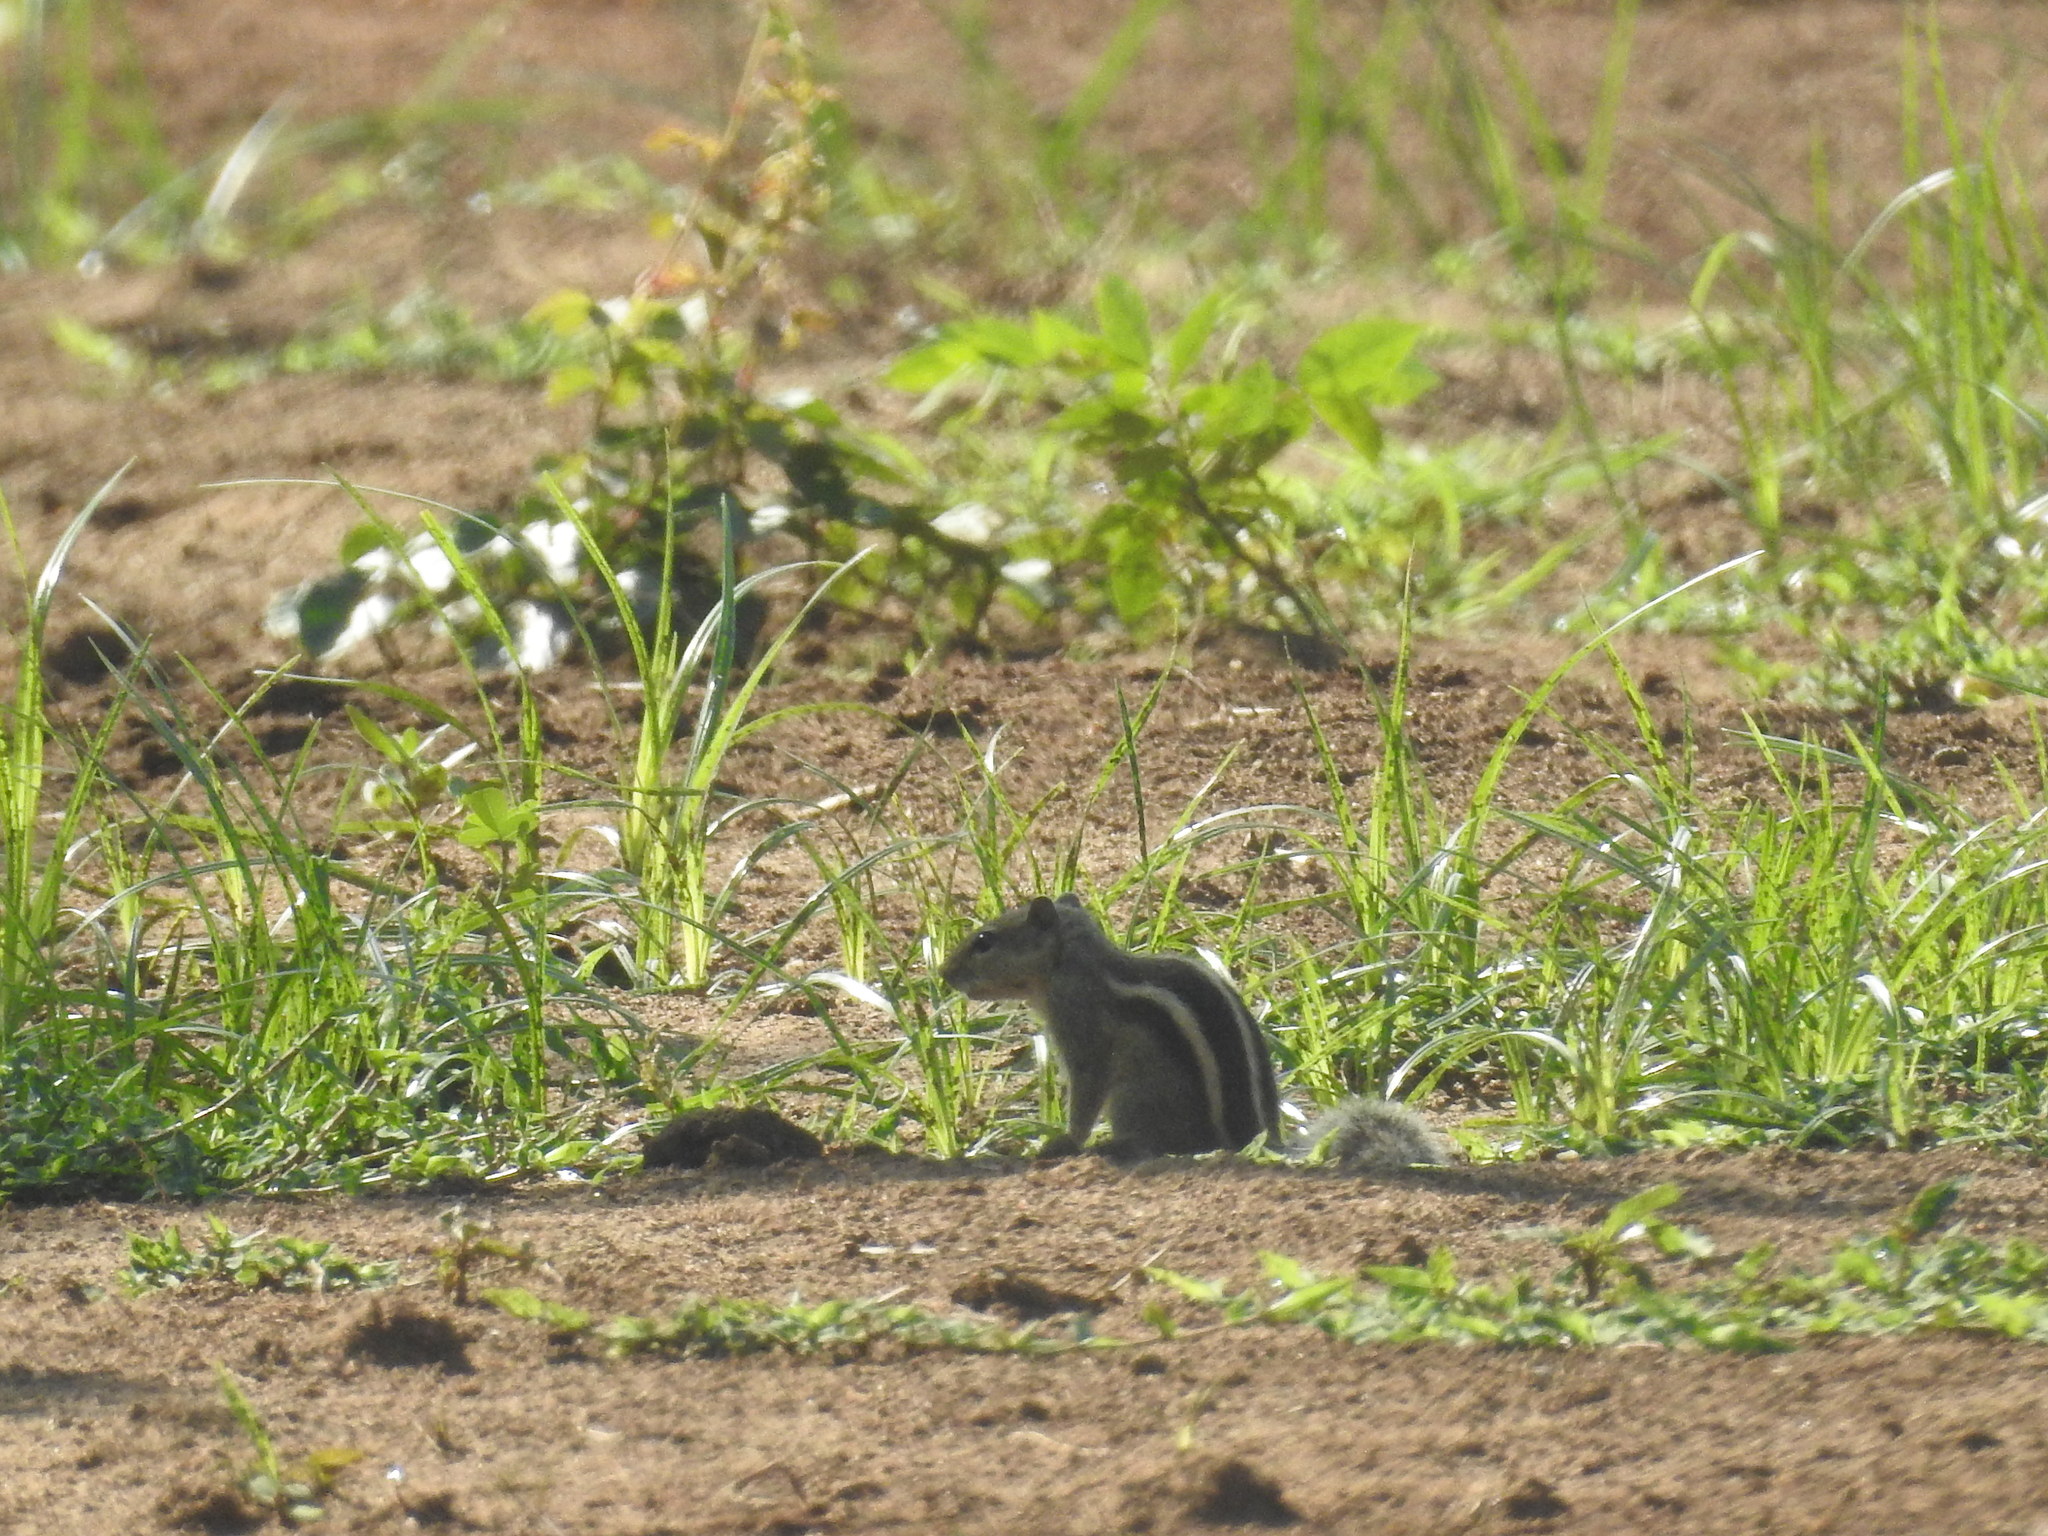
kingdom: Animalia
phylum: Chordata
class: Mammalia
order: Rodentia
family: Sciuridae
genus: Funambulus
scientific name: Funambulus palmarum
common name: Indian palm squirrel
